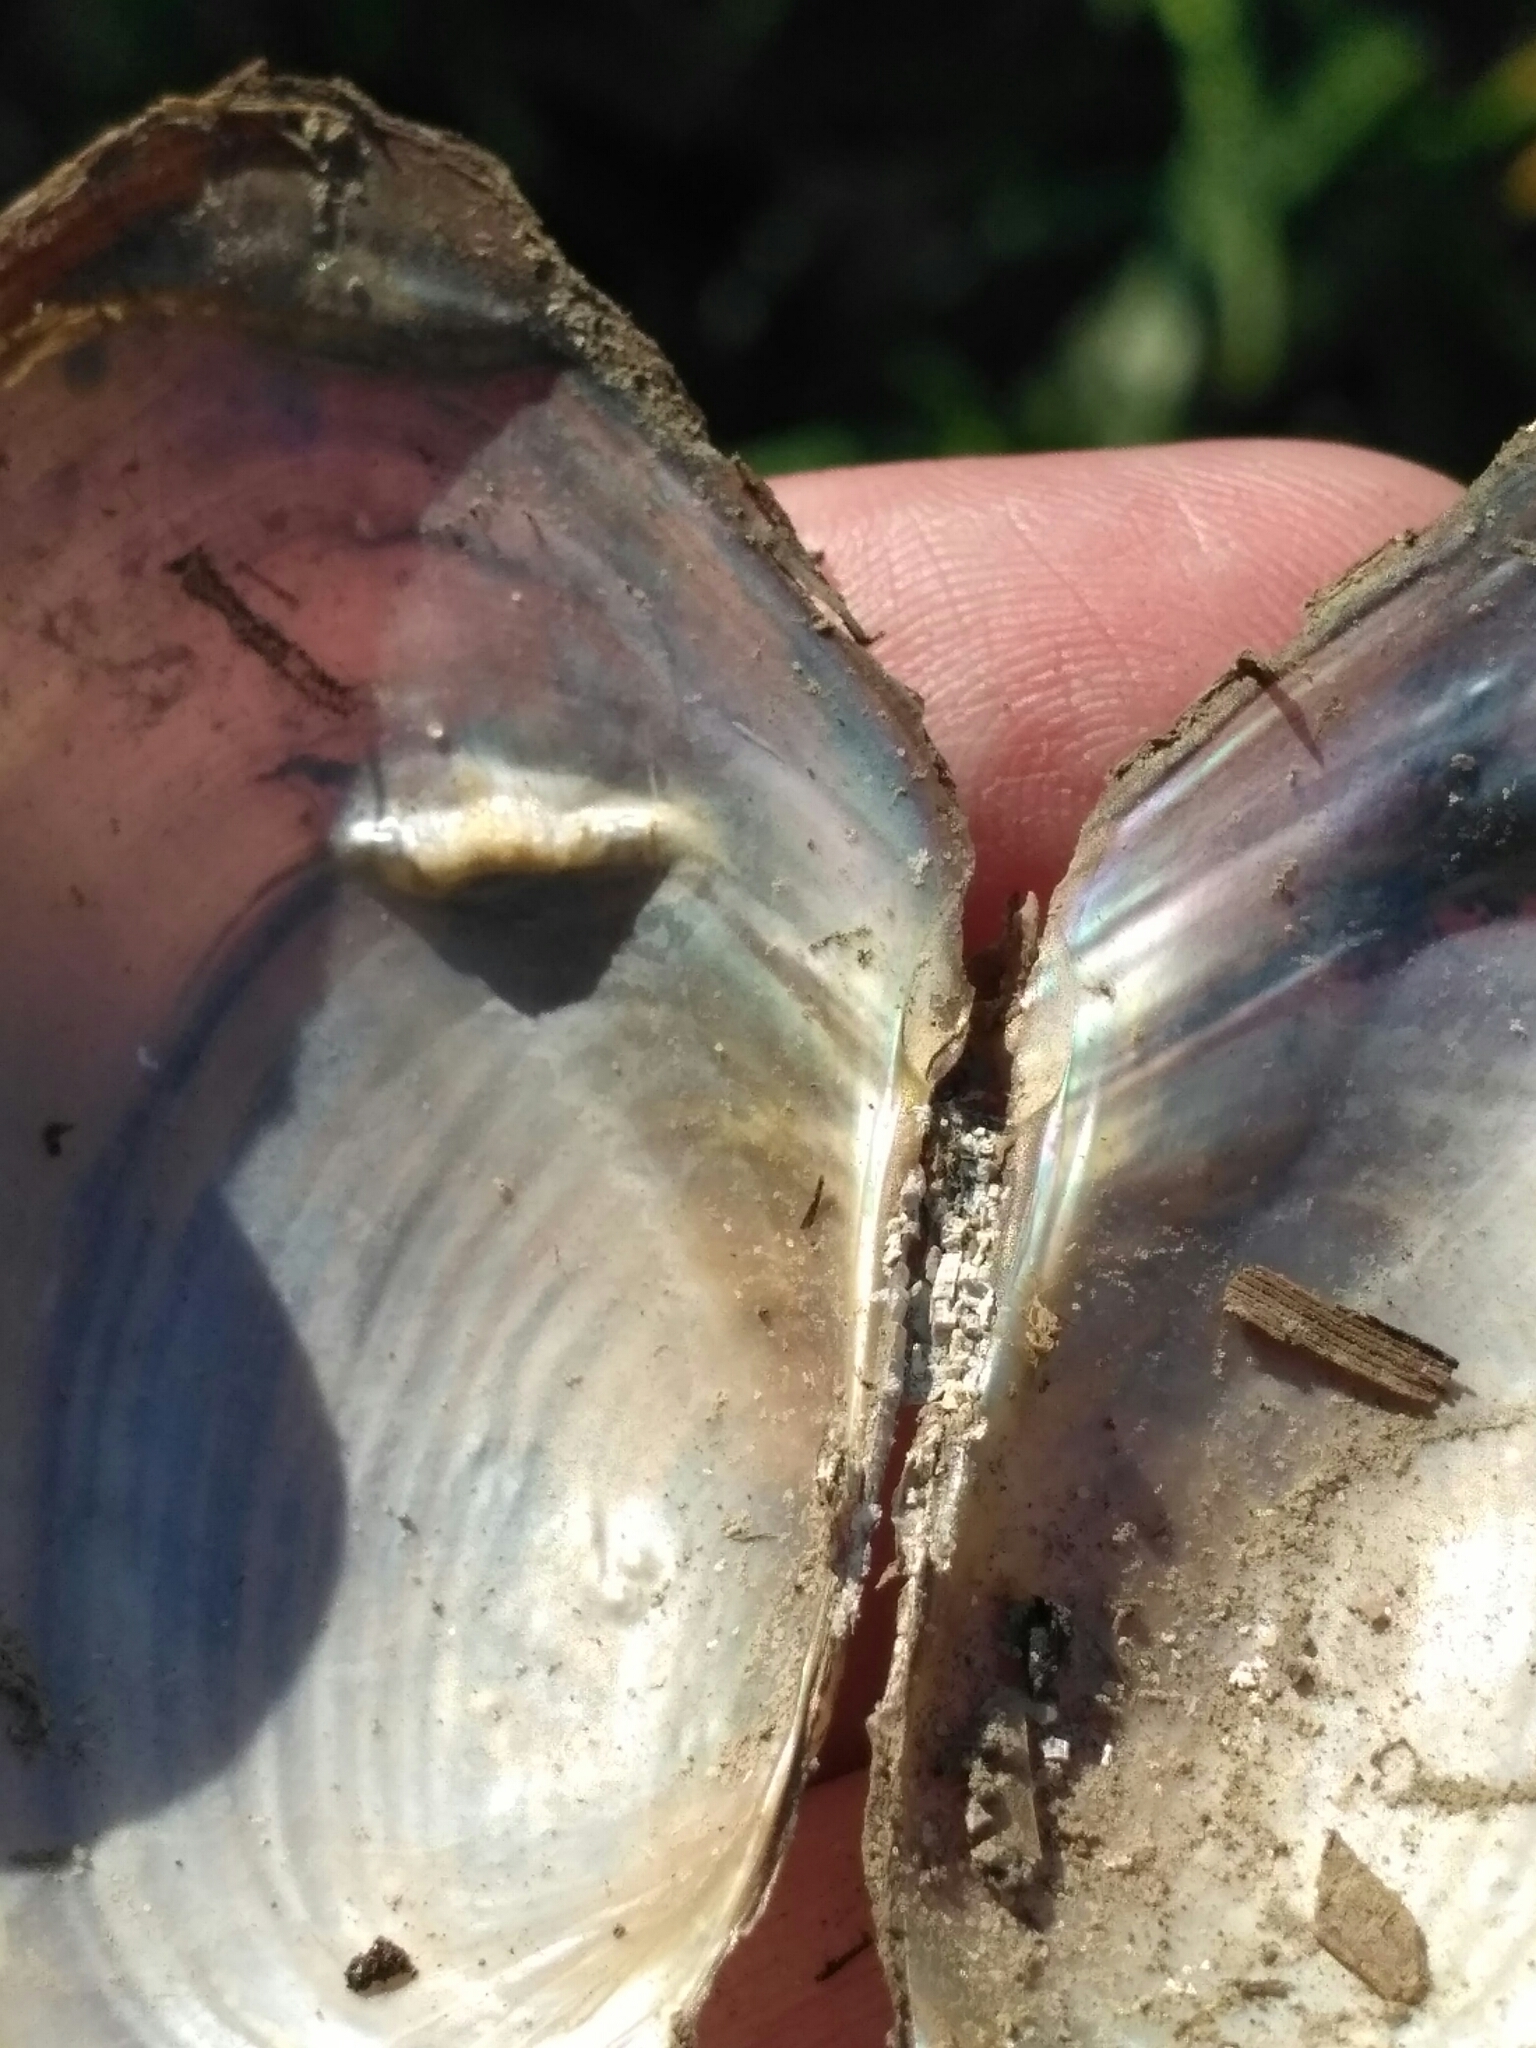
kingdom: Animalia
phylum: Mollusca
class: Bivalvia
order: Unionida
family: Unionidae
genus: Anodonta
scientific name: Anodonta anatina
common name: Duck mussel
